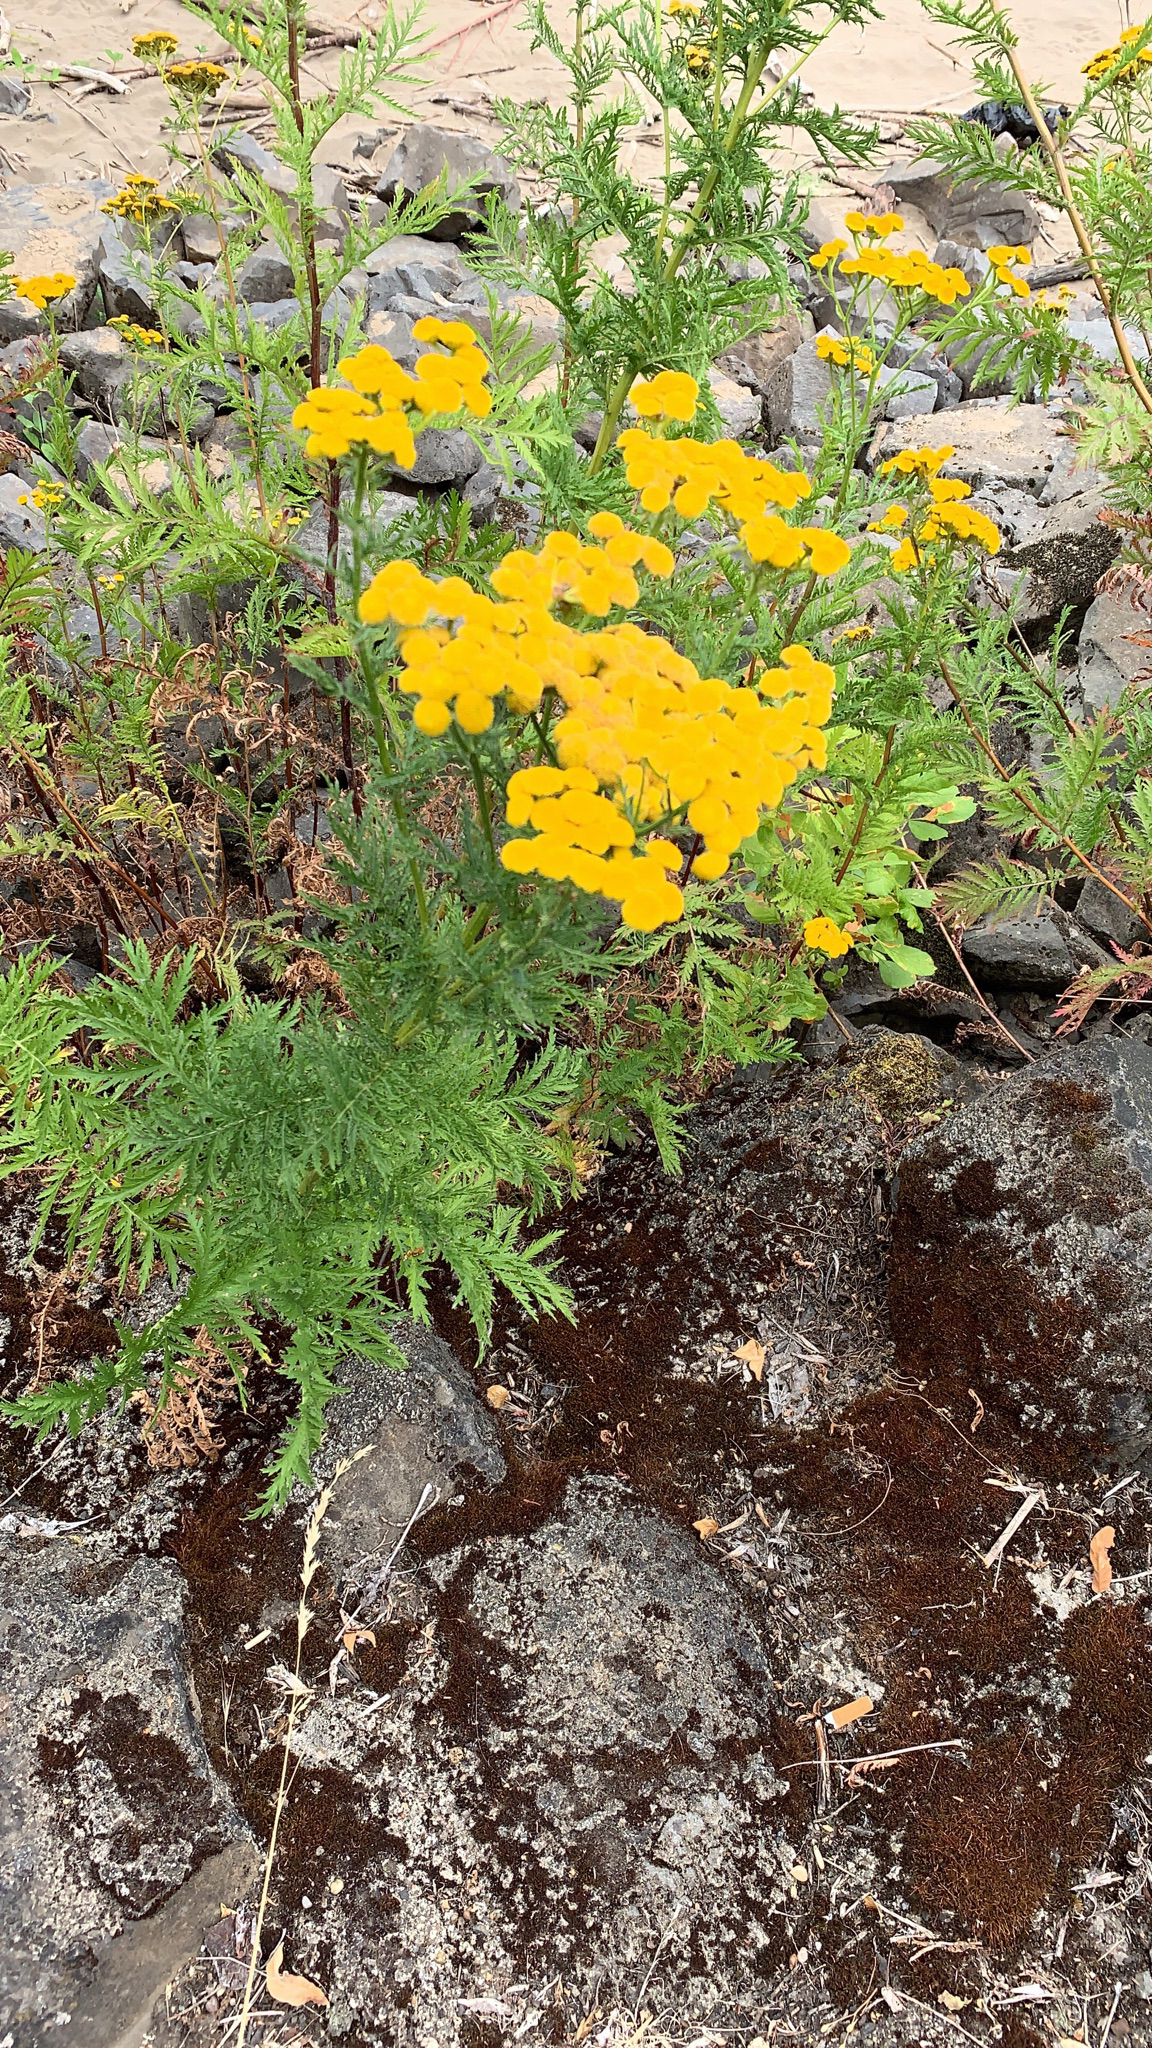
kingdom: Plantae
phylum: Tracheophyta
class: Magnoliopsida
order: Asterales
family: Asteraceae
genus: Tanacetum
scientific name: Tanacetum vulgare
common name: Common tansy
